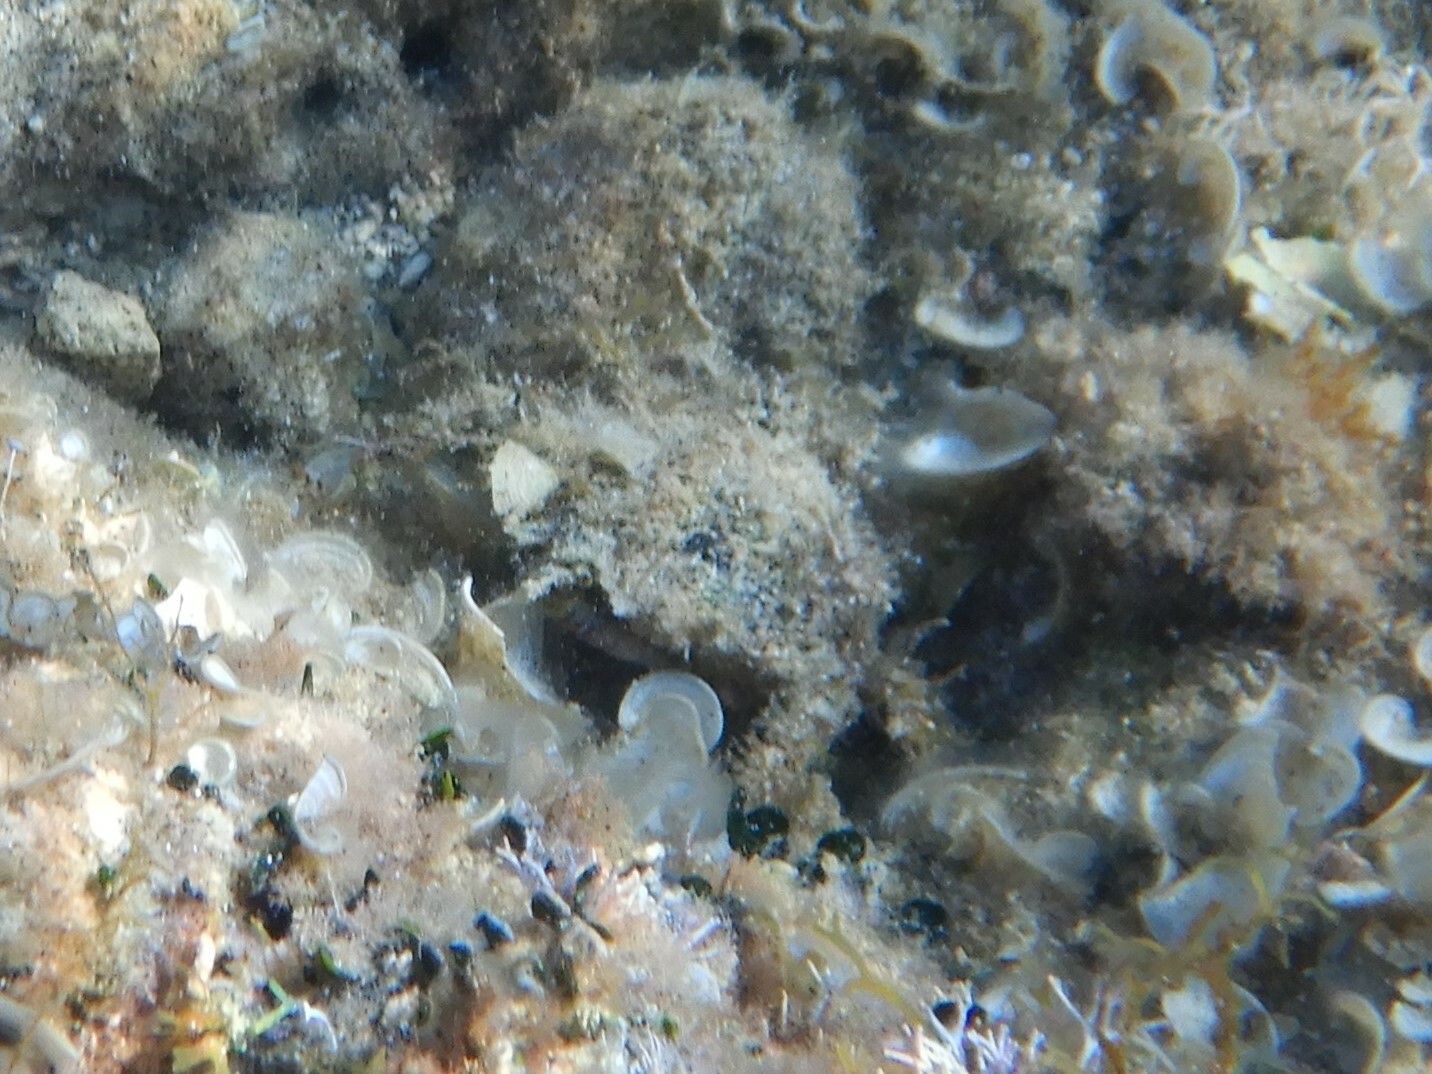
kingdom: Animalia
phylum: Arthropoda
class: Malacostraca
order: Decapoda
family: Majidae
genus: Maja
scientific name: Maja crispata
